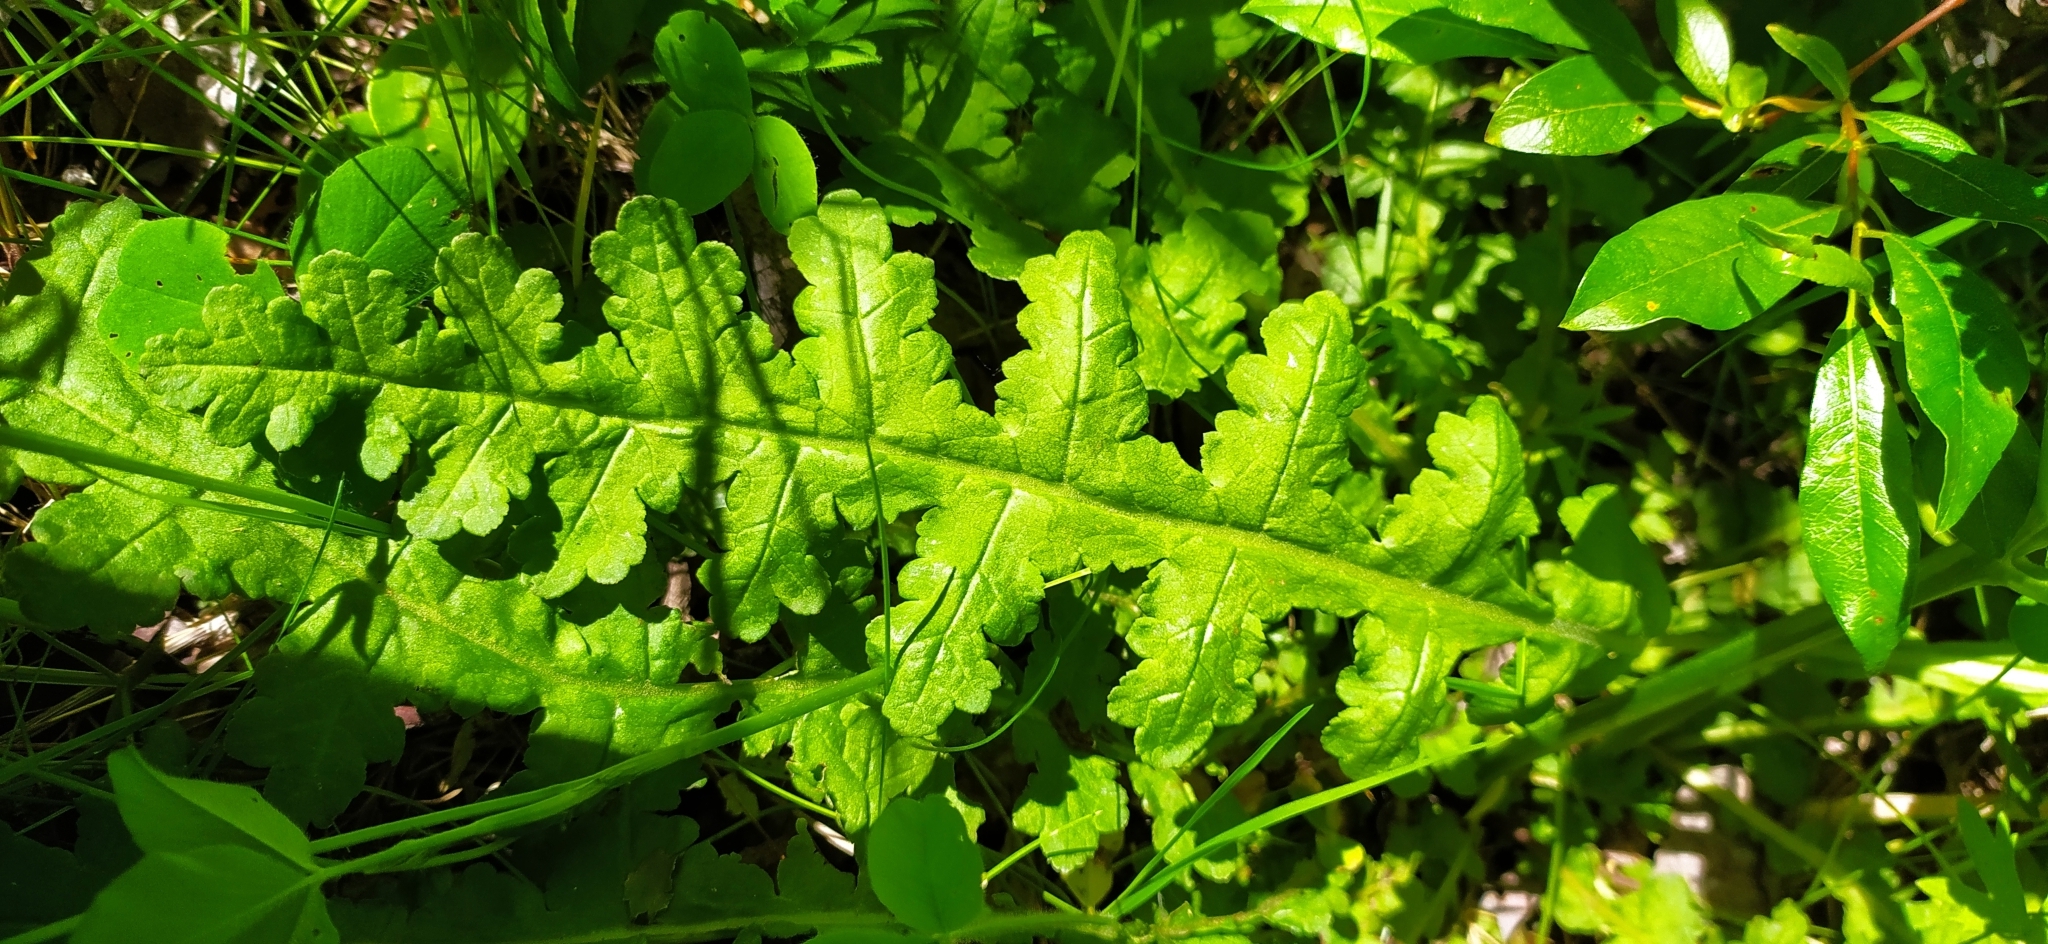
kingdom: Plantae
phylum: Tracheophyta
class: Magnoliopsida
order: Lamiales
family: Orobanchaceae
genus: Pedicularis
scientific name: Pedicularis sceptrum-carolinum
